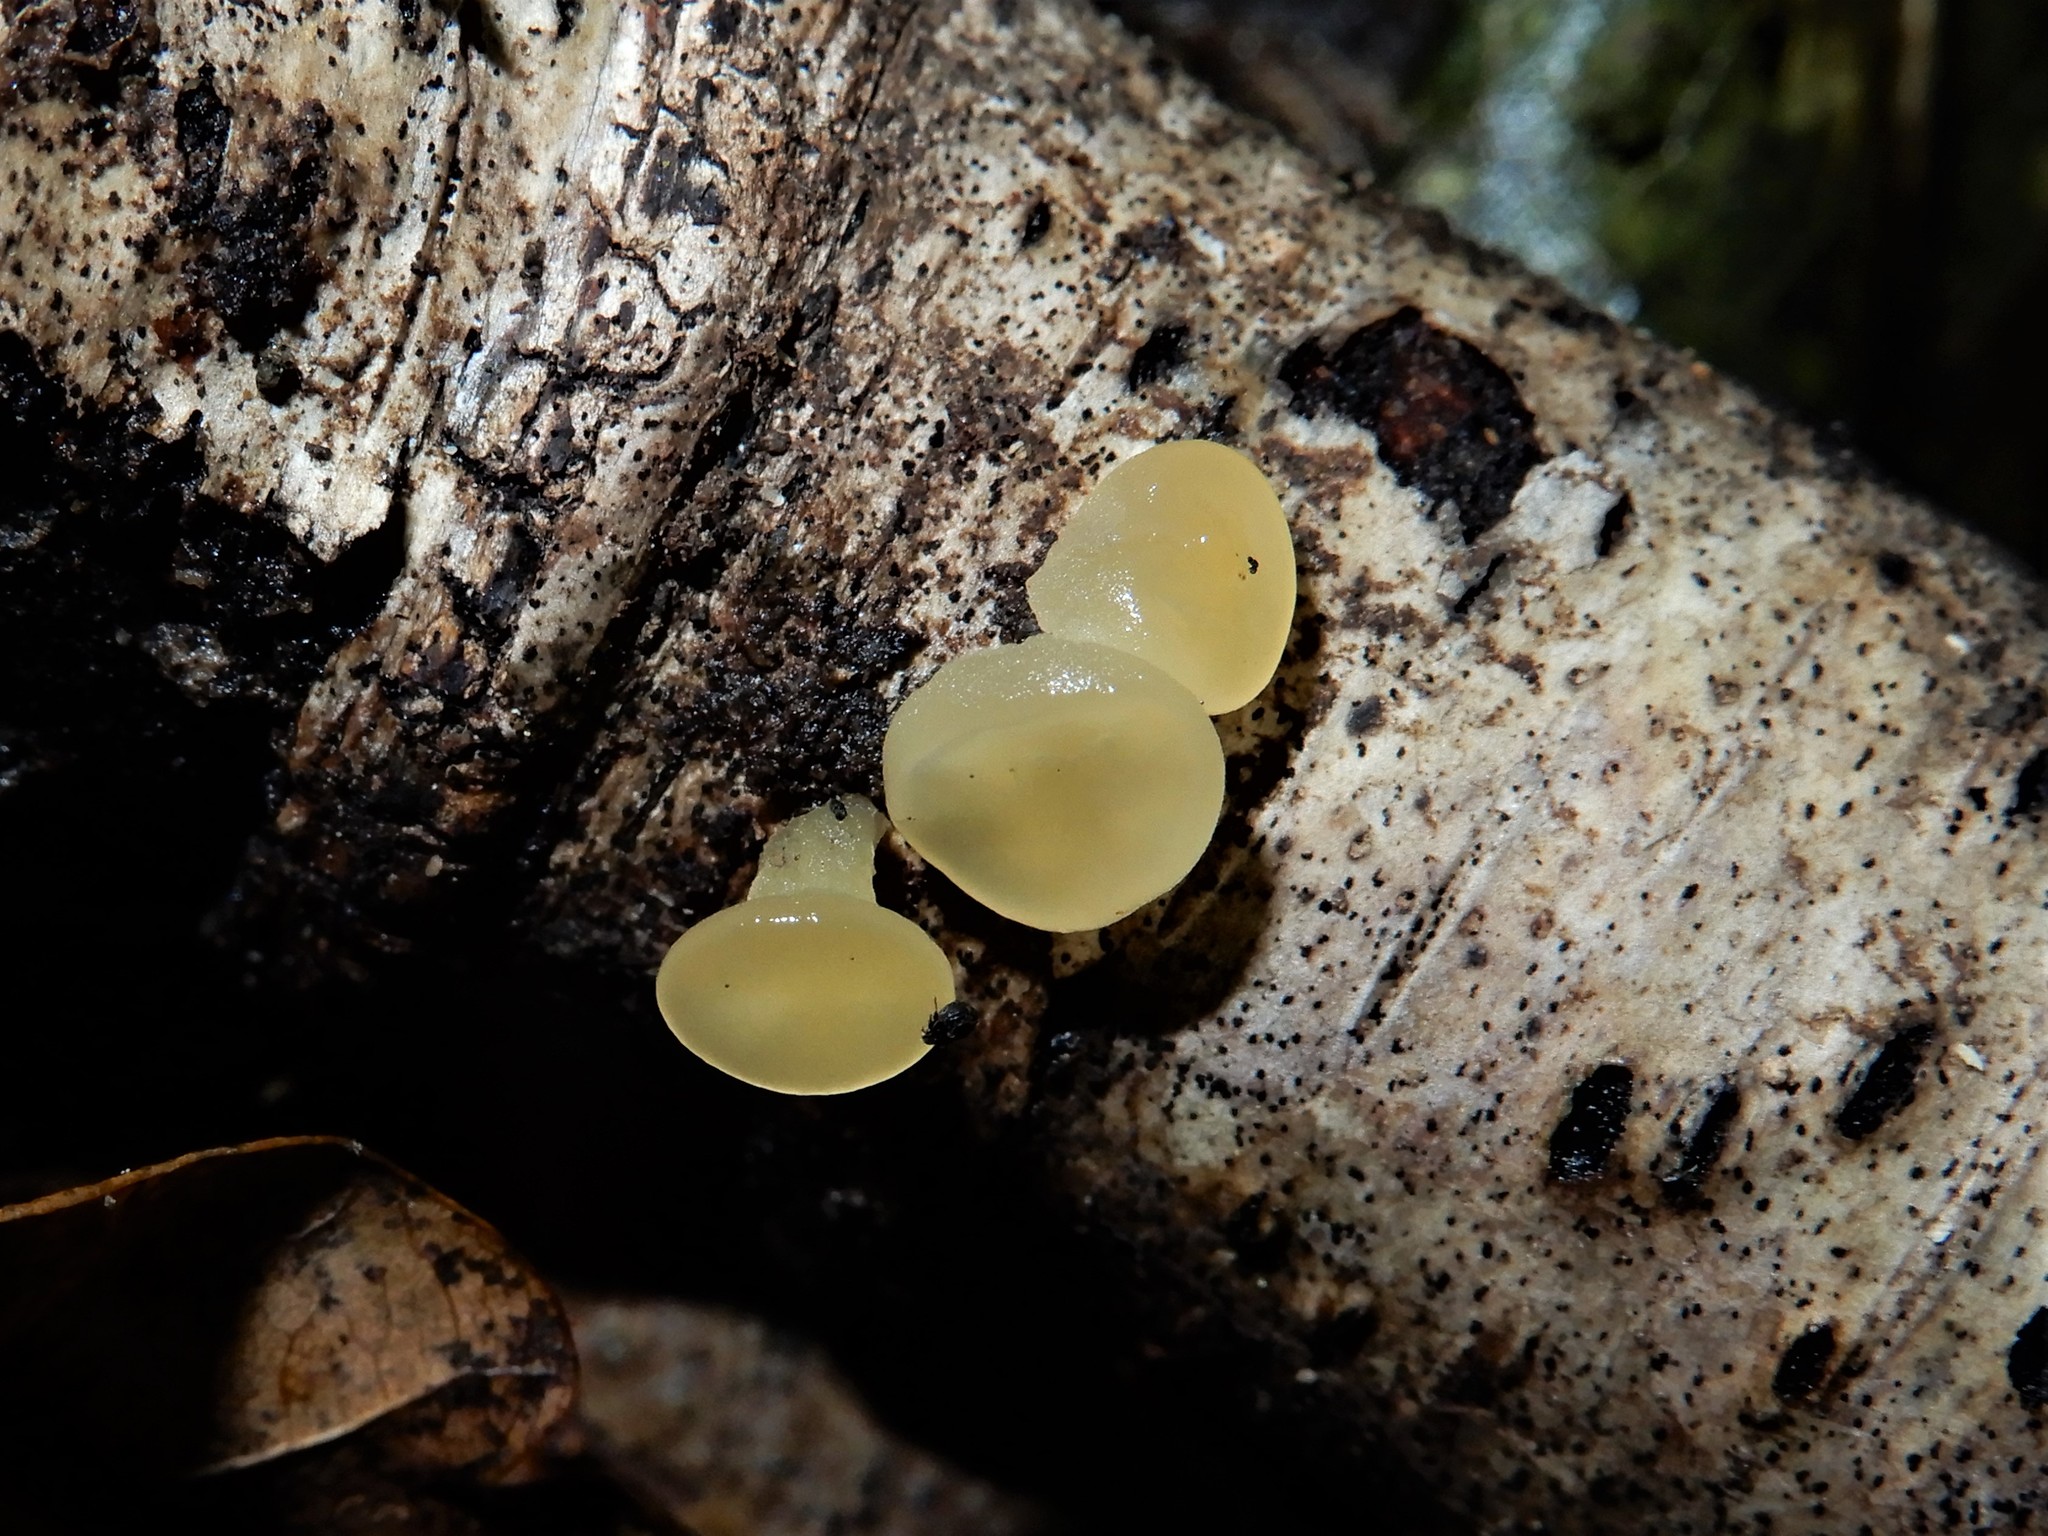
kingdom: Fungi
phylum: Basidiomycota
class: Dacrymycetes
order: Dacrymycetales
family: Dacrymycetaceae
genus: Heterotextus
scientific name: Heterotextus miltinus
